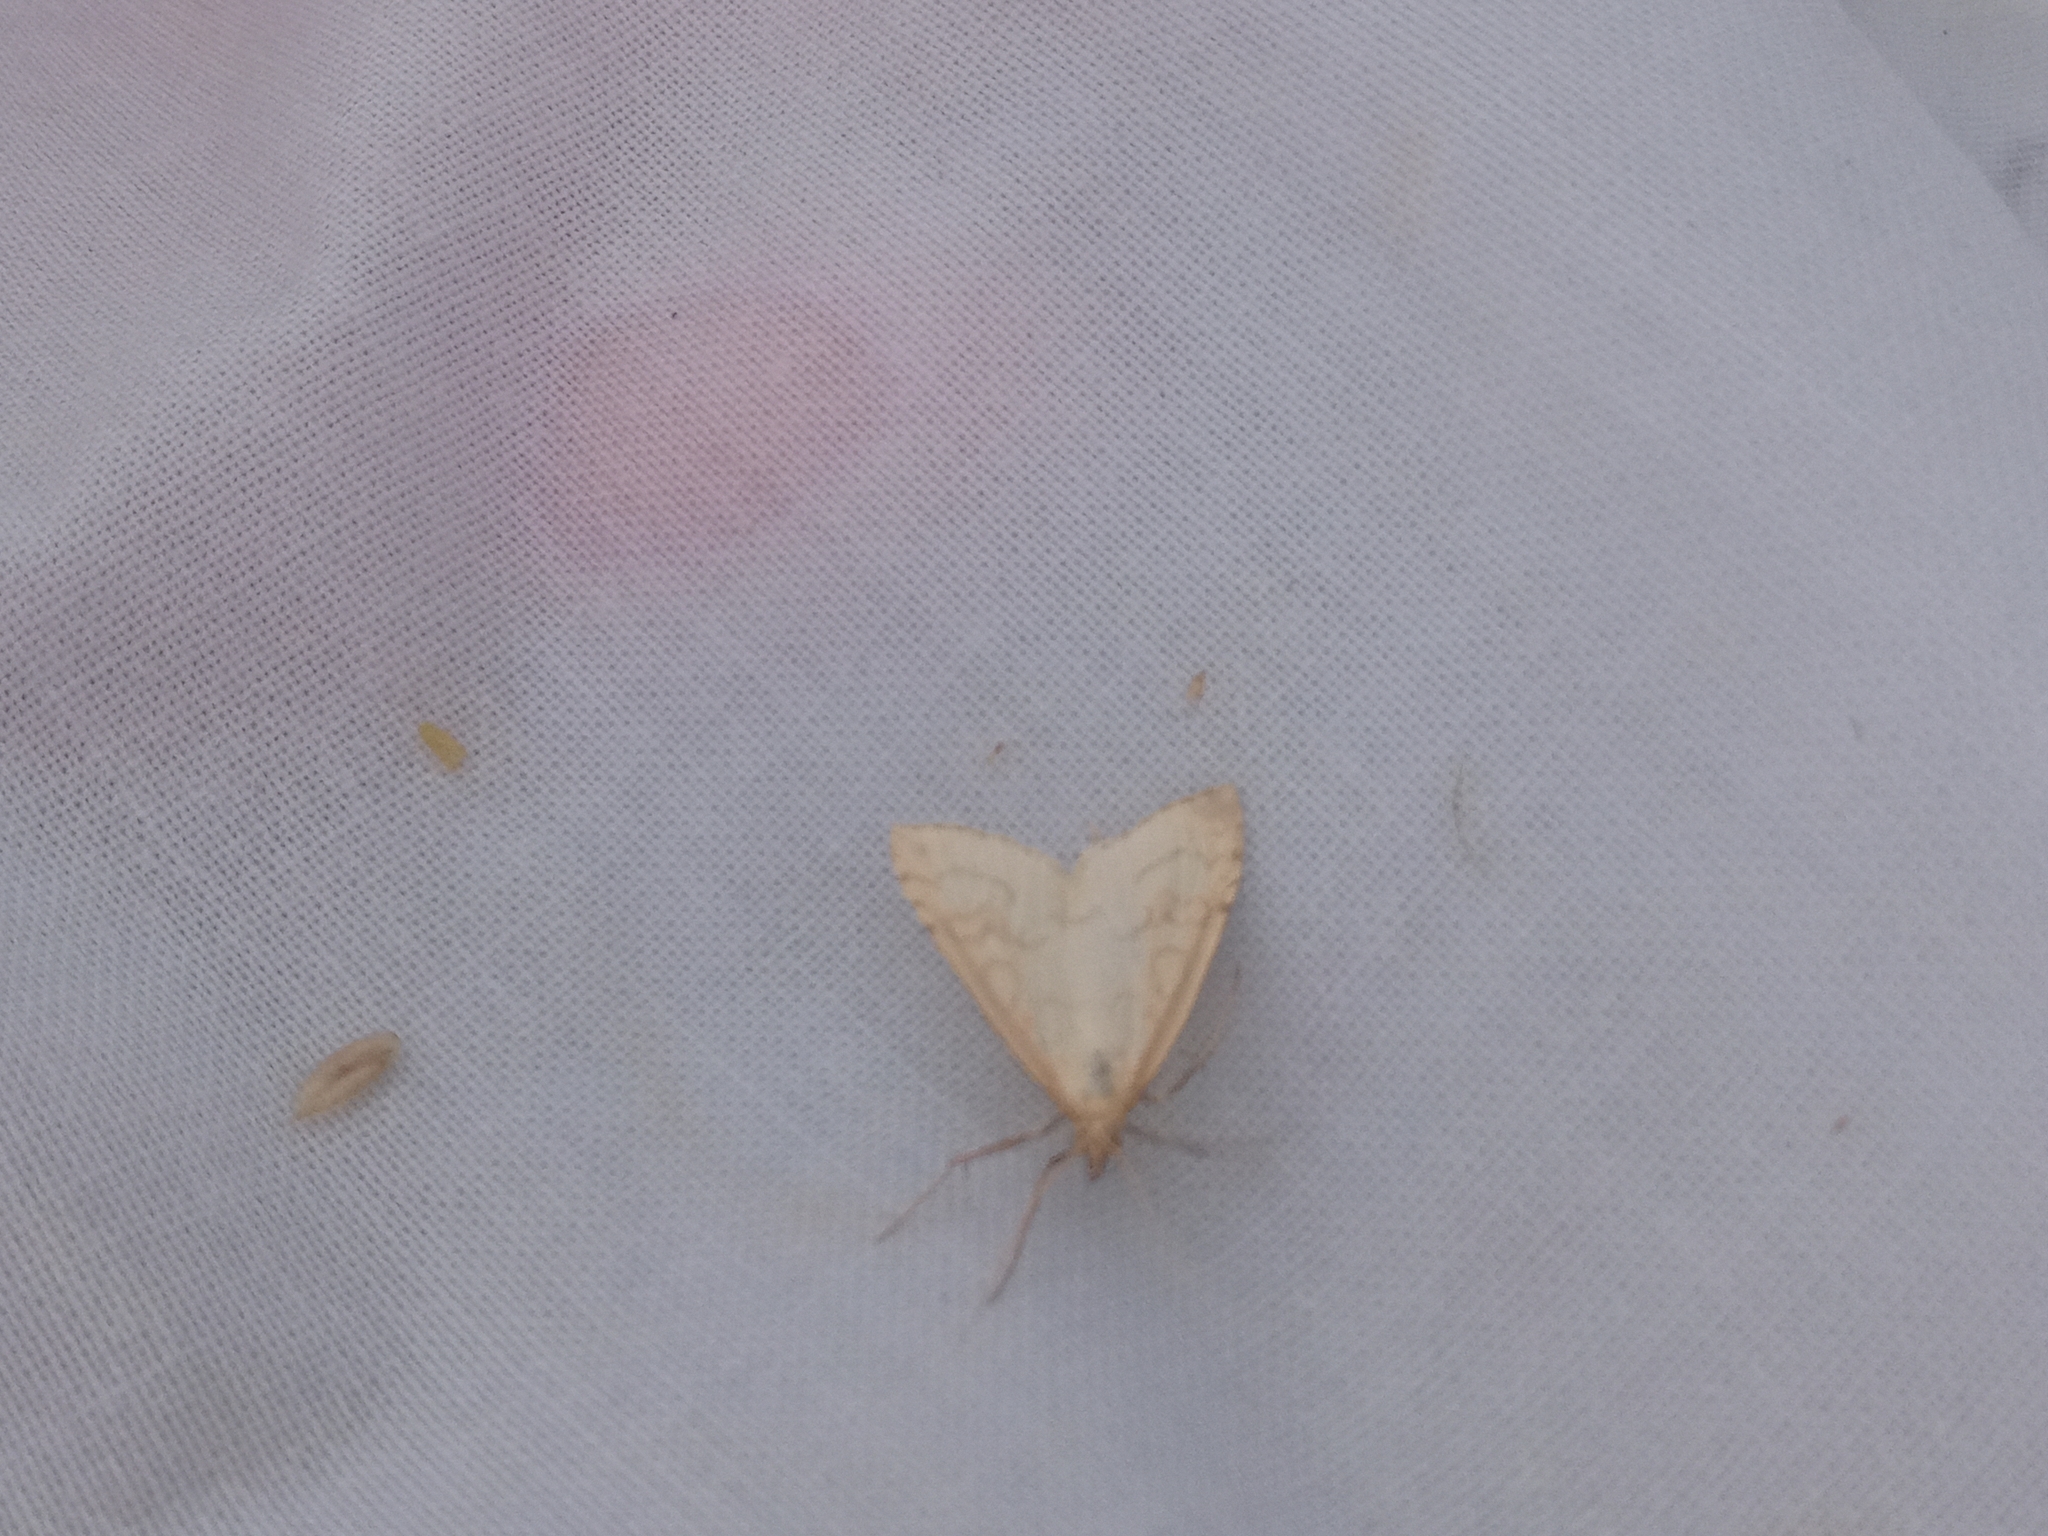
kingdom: Animalia
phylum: Arthropoda
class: Insecta
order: Lepidoptera
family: Crambidae
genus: Udea
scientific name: Udea lutealis
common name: Pale straw pearl
